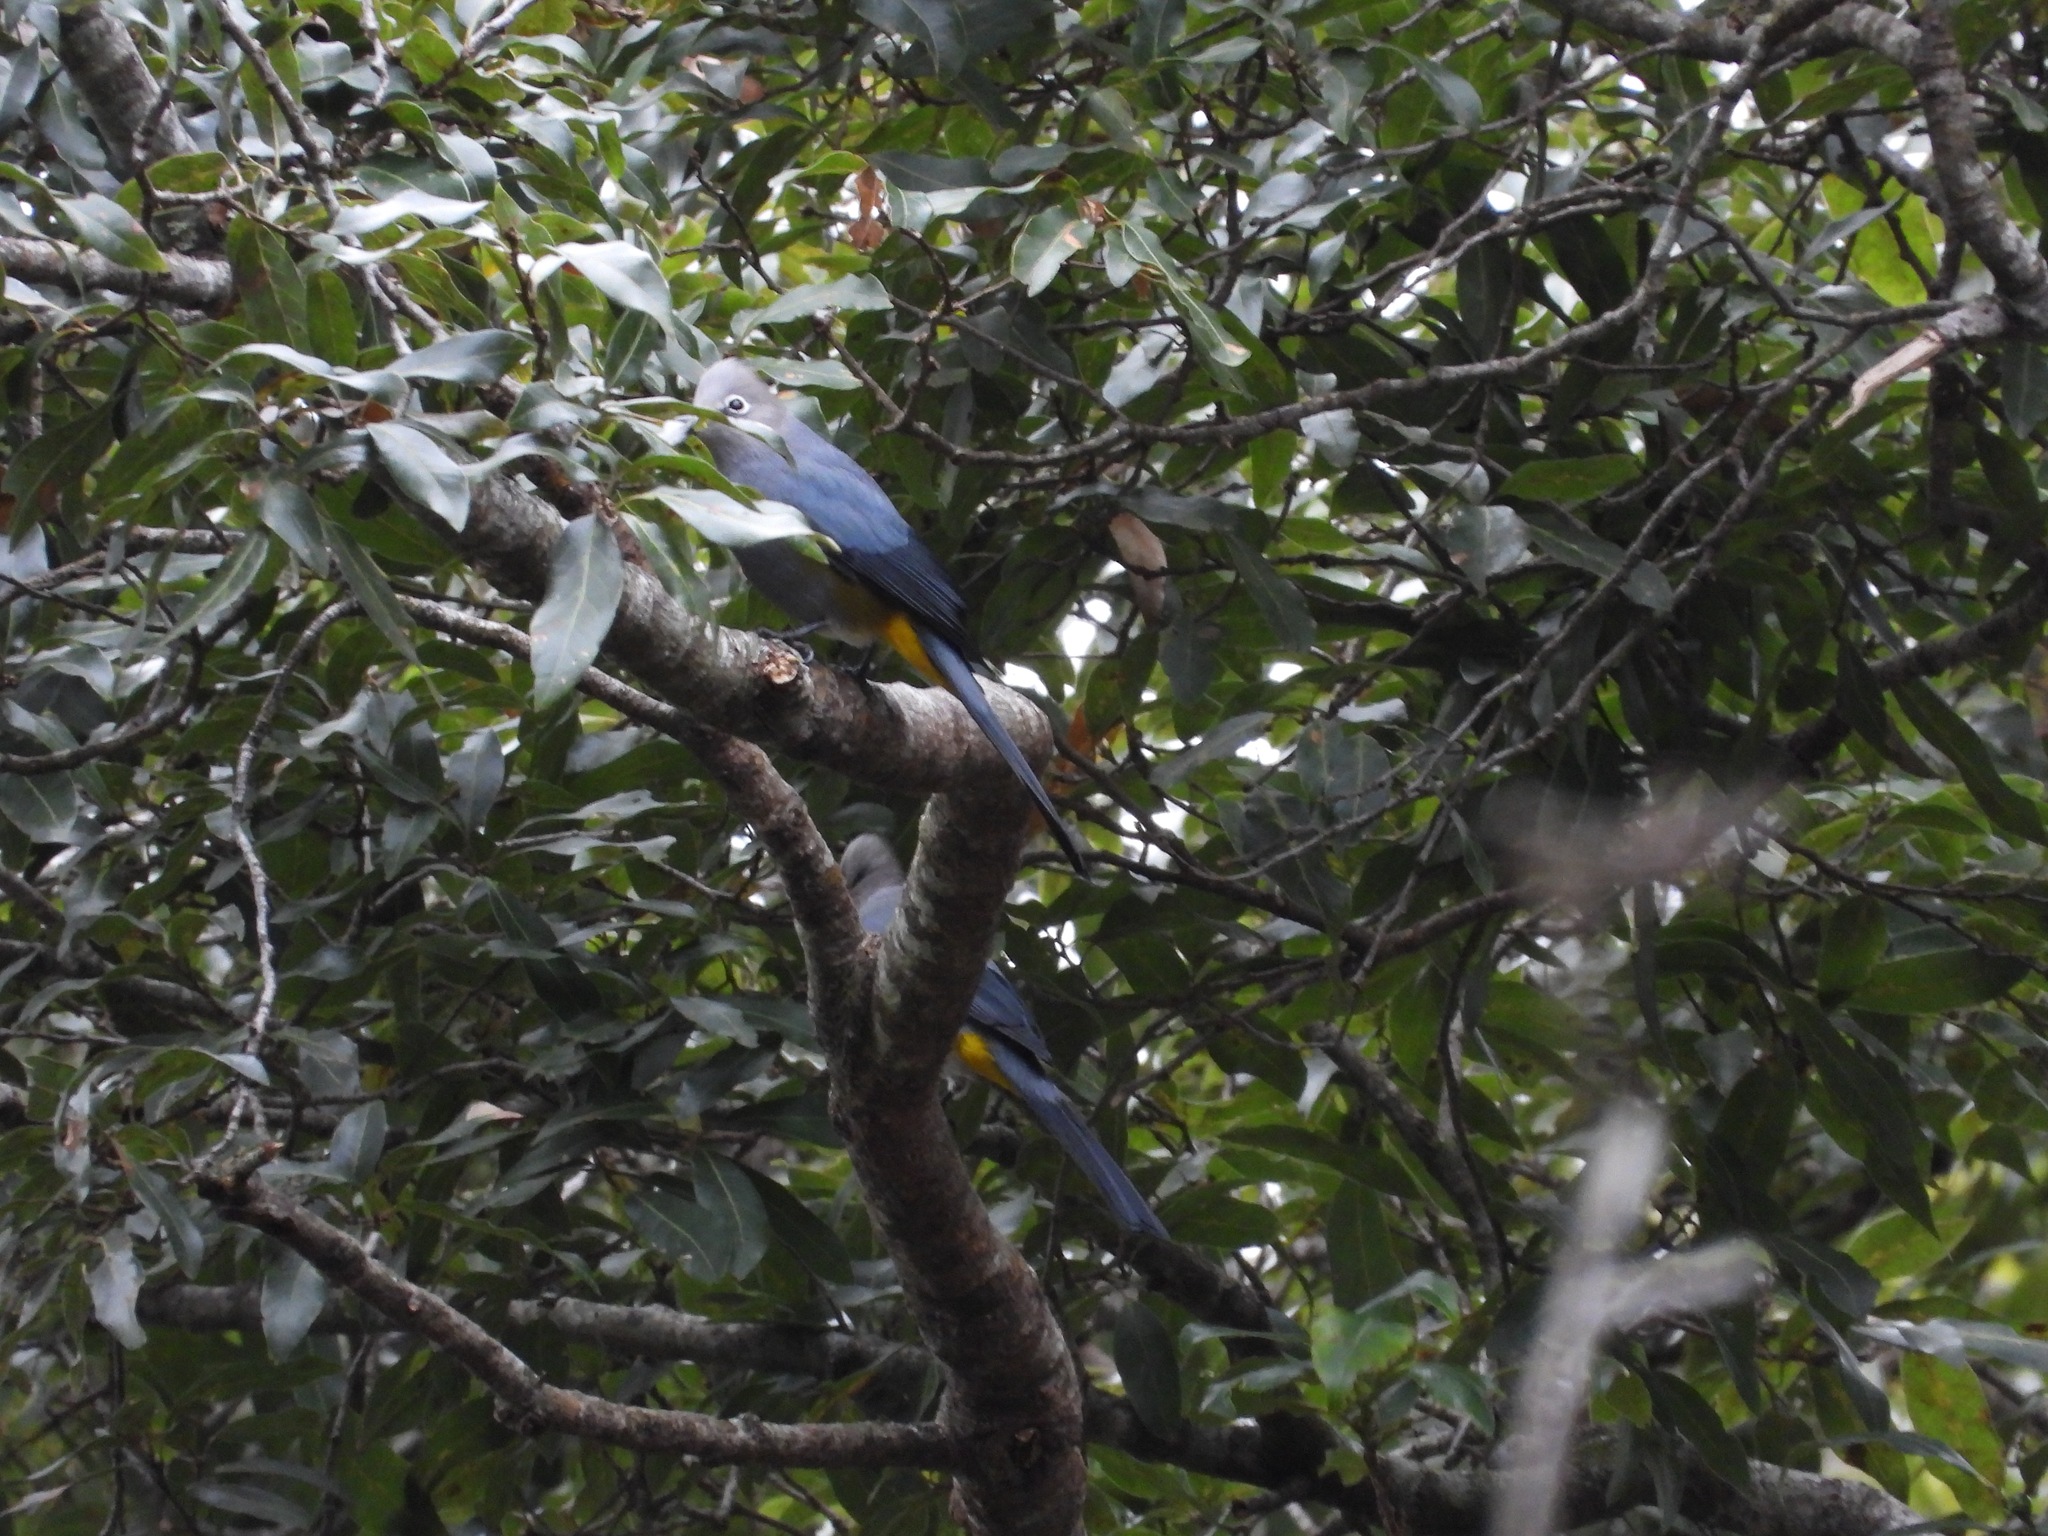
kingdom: Animalia
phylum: Chordata
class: Aves
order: Passeriformes
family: Ptilogonatidae
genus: Ptilogonys
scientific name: Ptilogonys cinereus
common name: Gray silky-flycatcher
